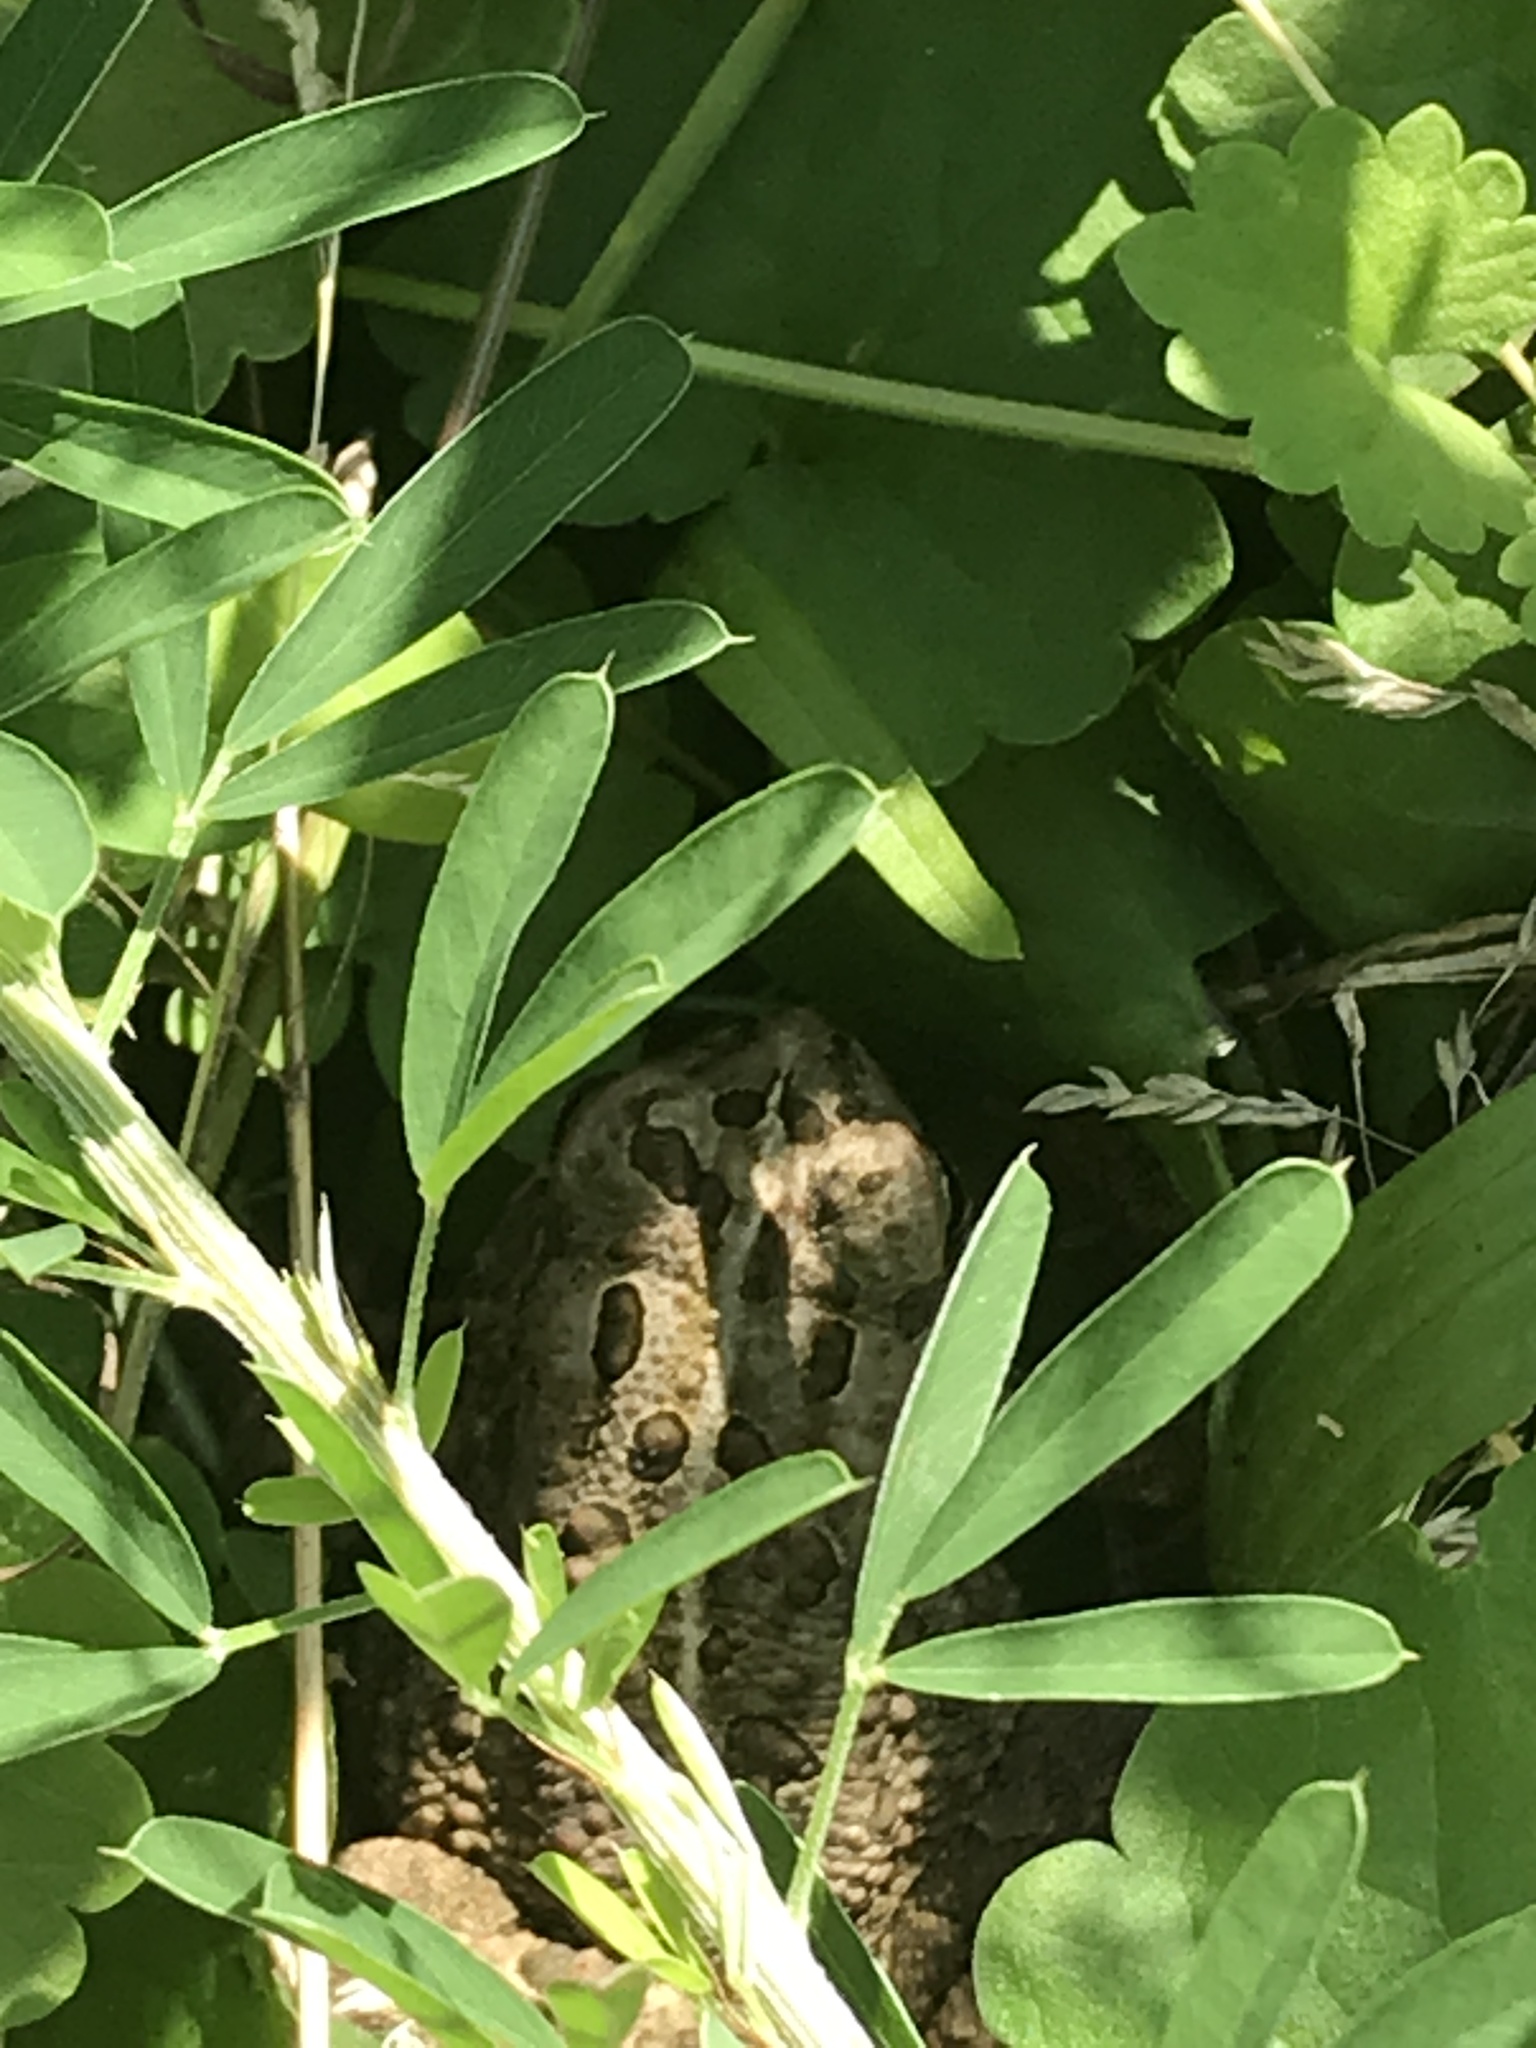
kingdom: Animalia
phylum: Chordata
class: Amphibia
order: Anura
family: Bufonidae
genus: Anaxyrus
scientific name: Anaxyrus fowleri
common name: Fowler's toad
